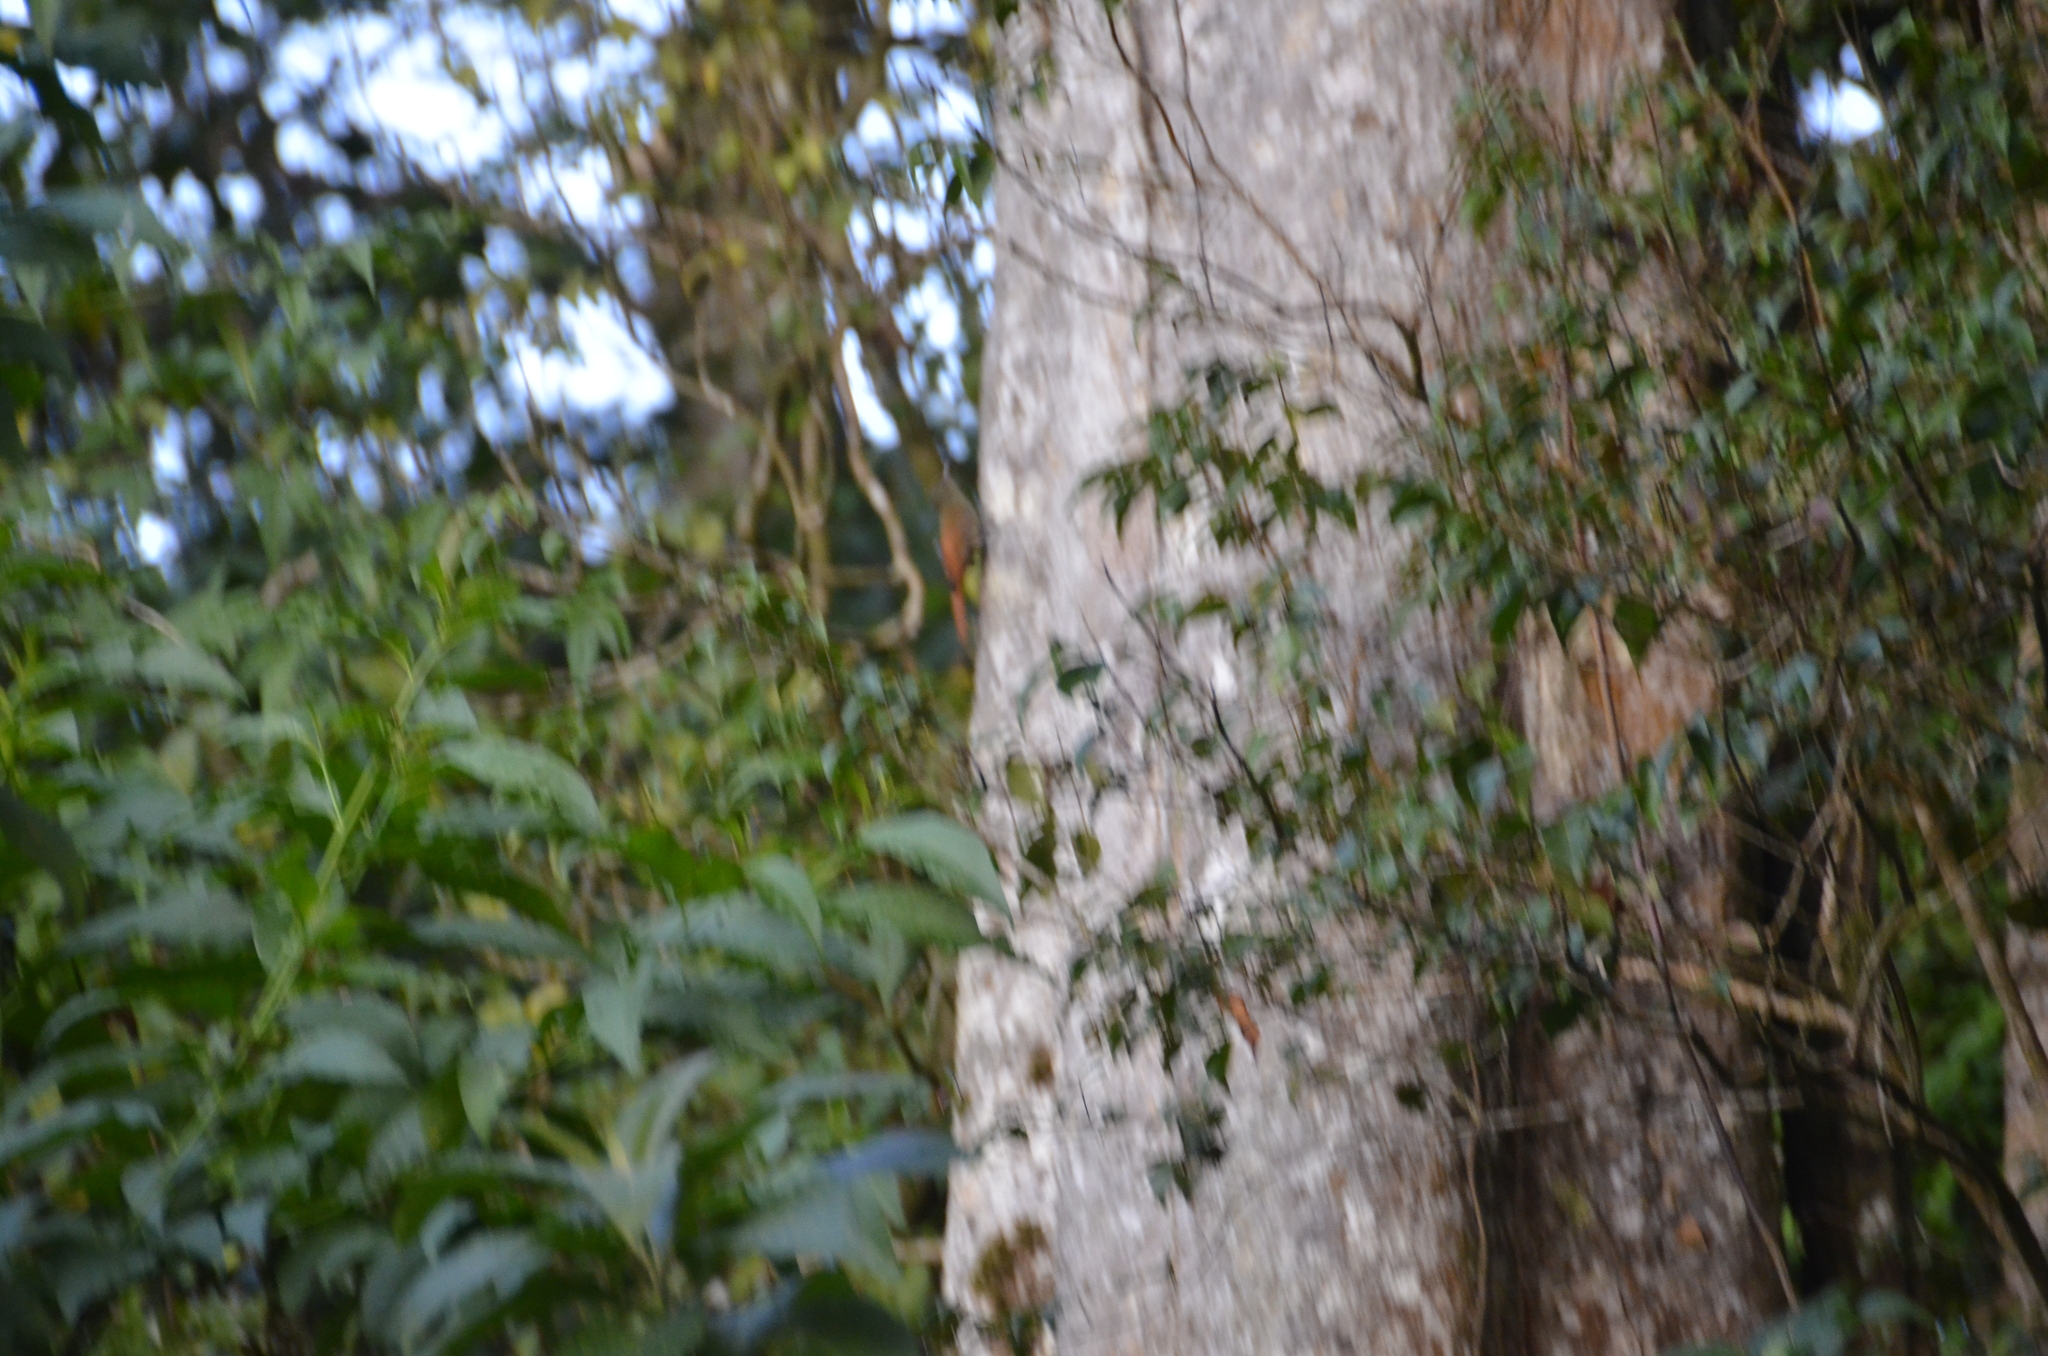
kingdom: Animalia
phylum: Chordata
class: Aves
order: Passeriformes
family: Furnariidae
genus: Sittasomus
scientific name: Sittasomus griseicapillus
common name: Olivaceous woodcreeper
